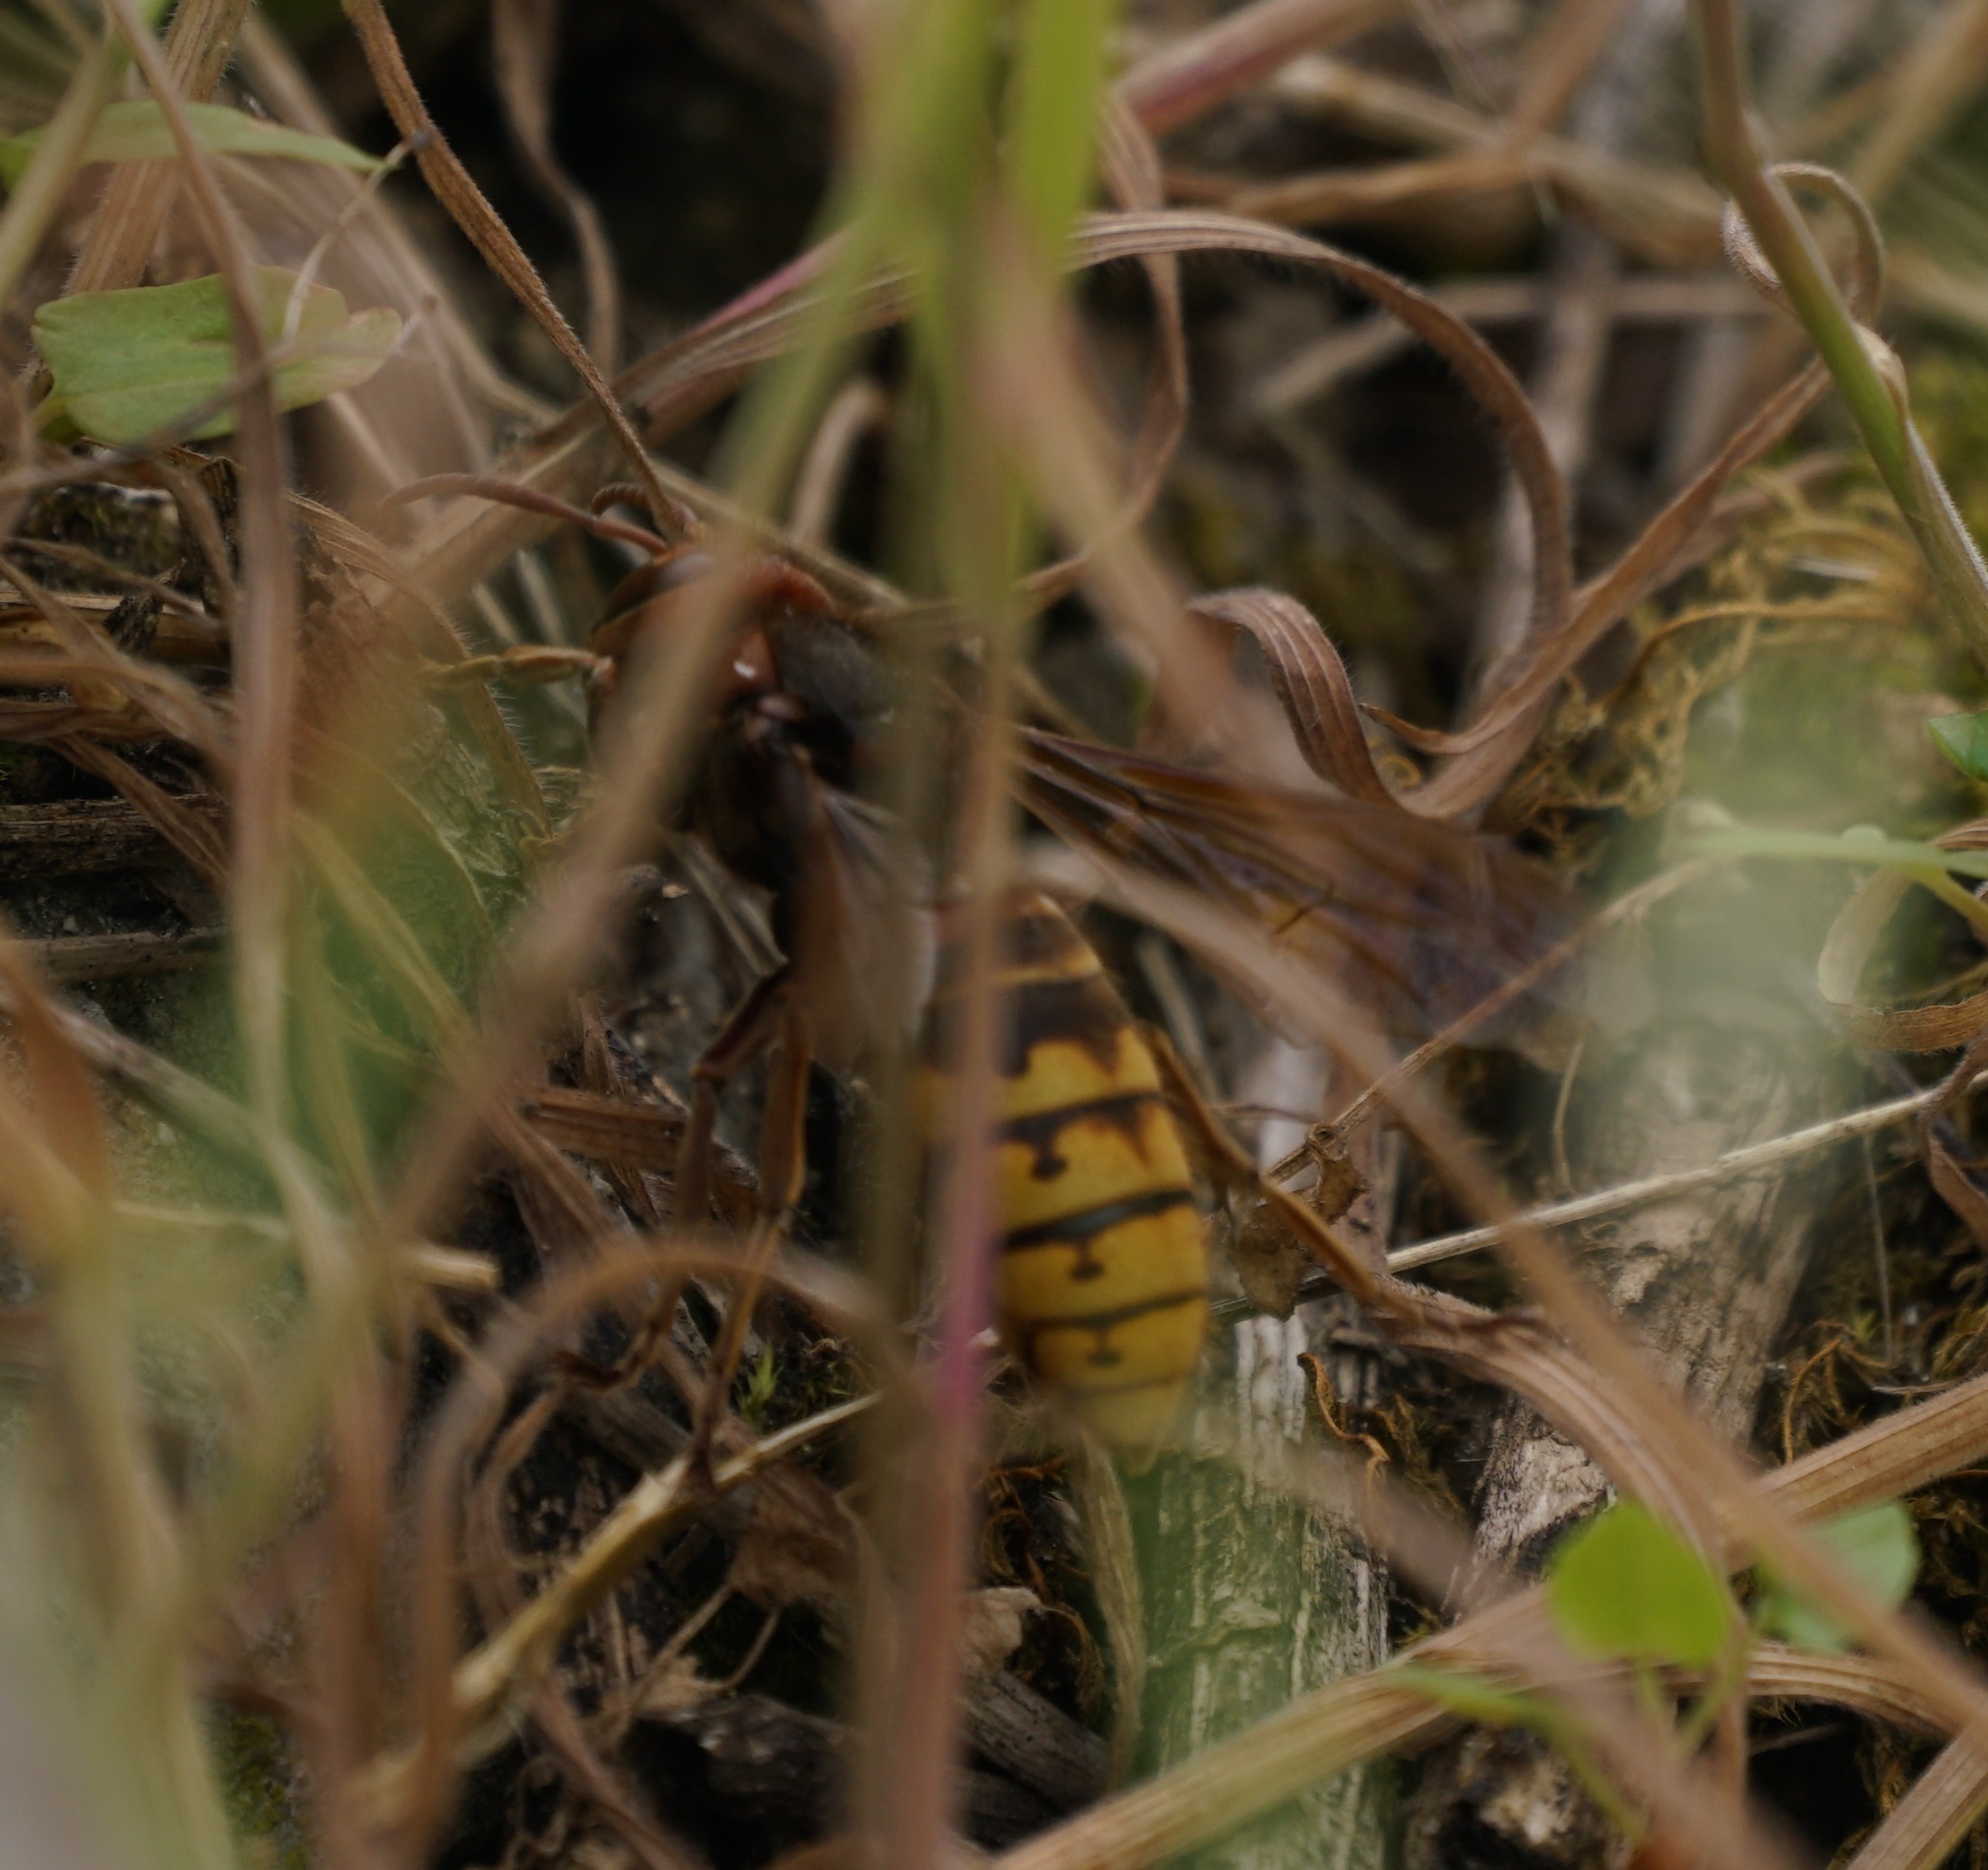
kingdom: Animalia
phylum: Arthropoda
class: Insecta
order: Hymenoptera
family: Vespidae
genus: Vespa
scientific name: Vespa crabro
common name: Hornet
